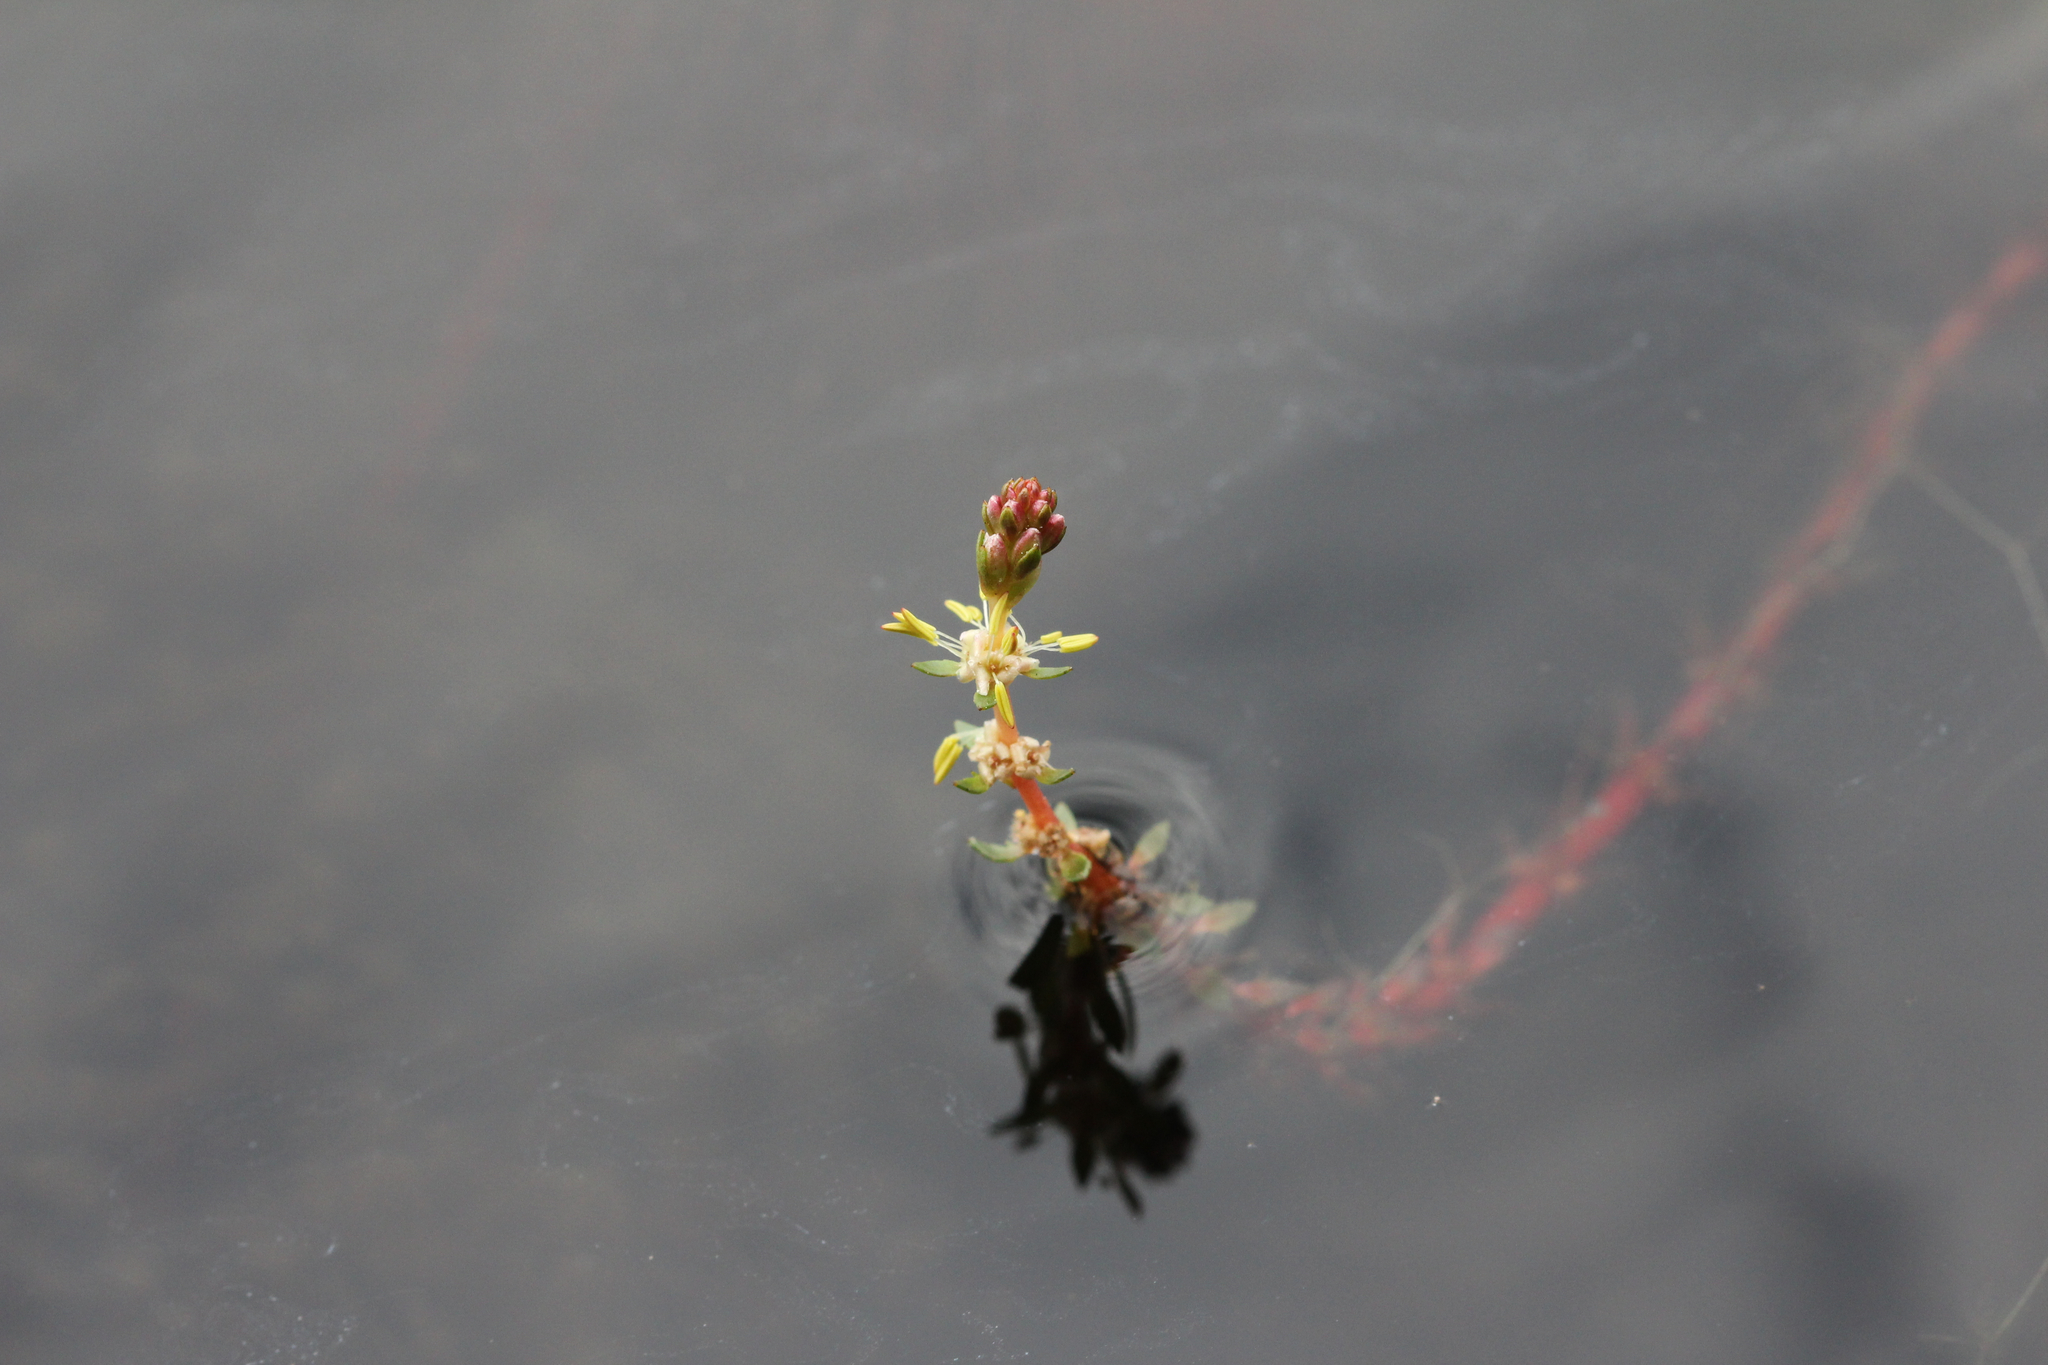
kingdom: Plantae
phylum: Tracheophyta
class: Magnoliopsida
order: Saxifragales
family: Haloragaceae
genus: Myriophyllum
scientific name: Myriophyllum heterophyllum
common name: Variable watermilfoil
